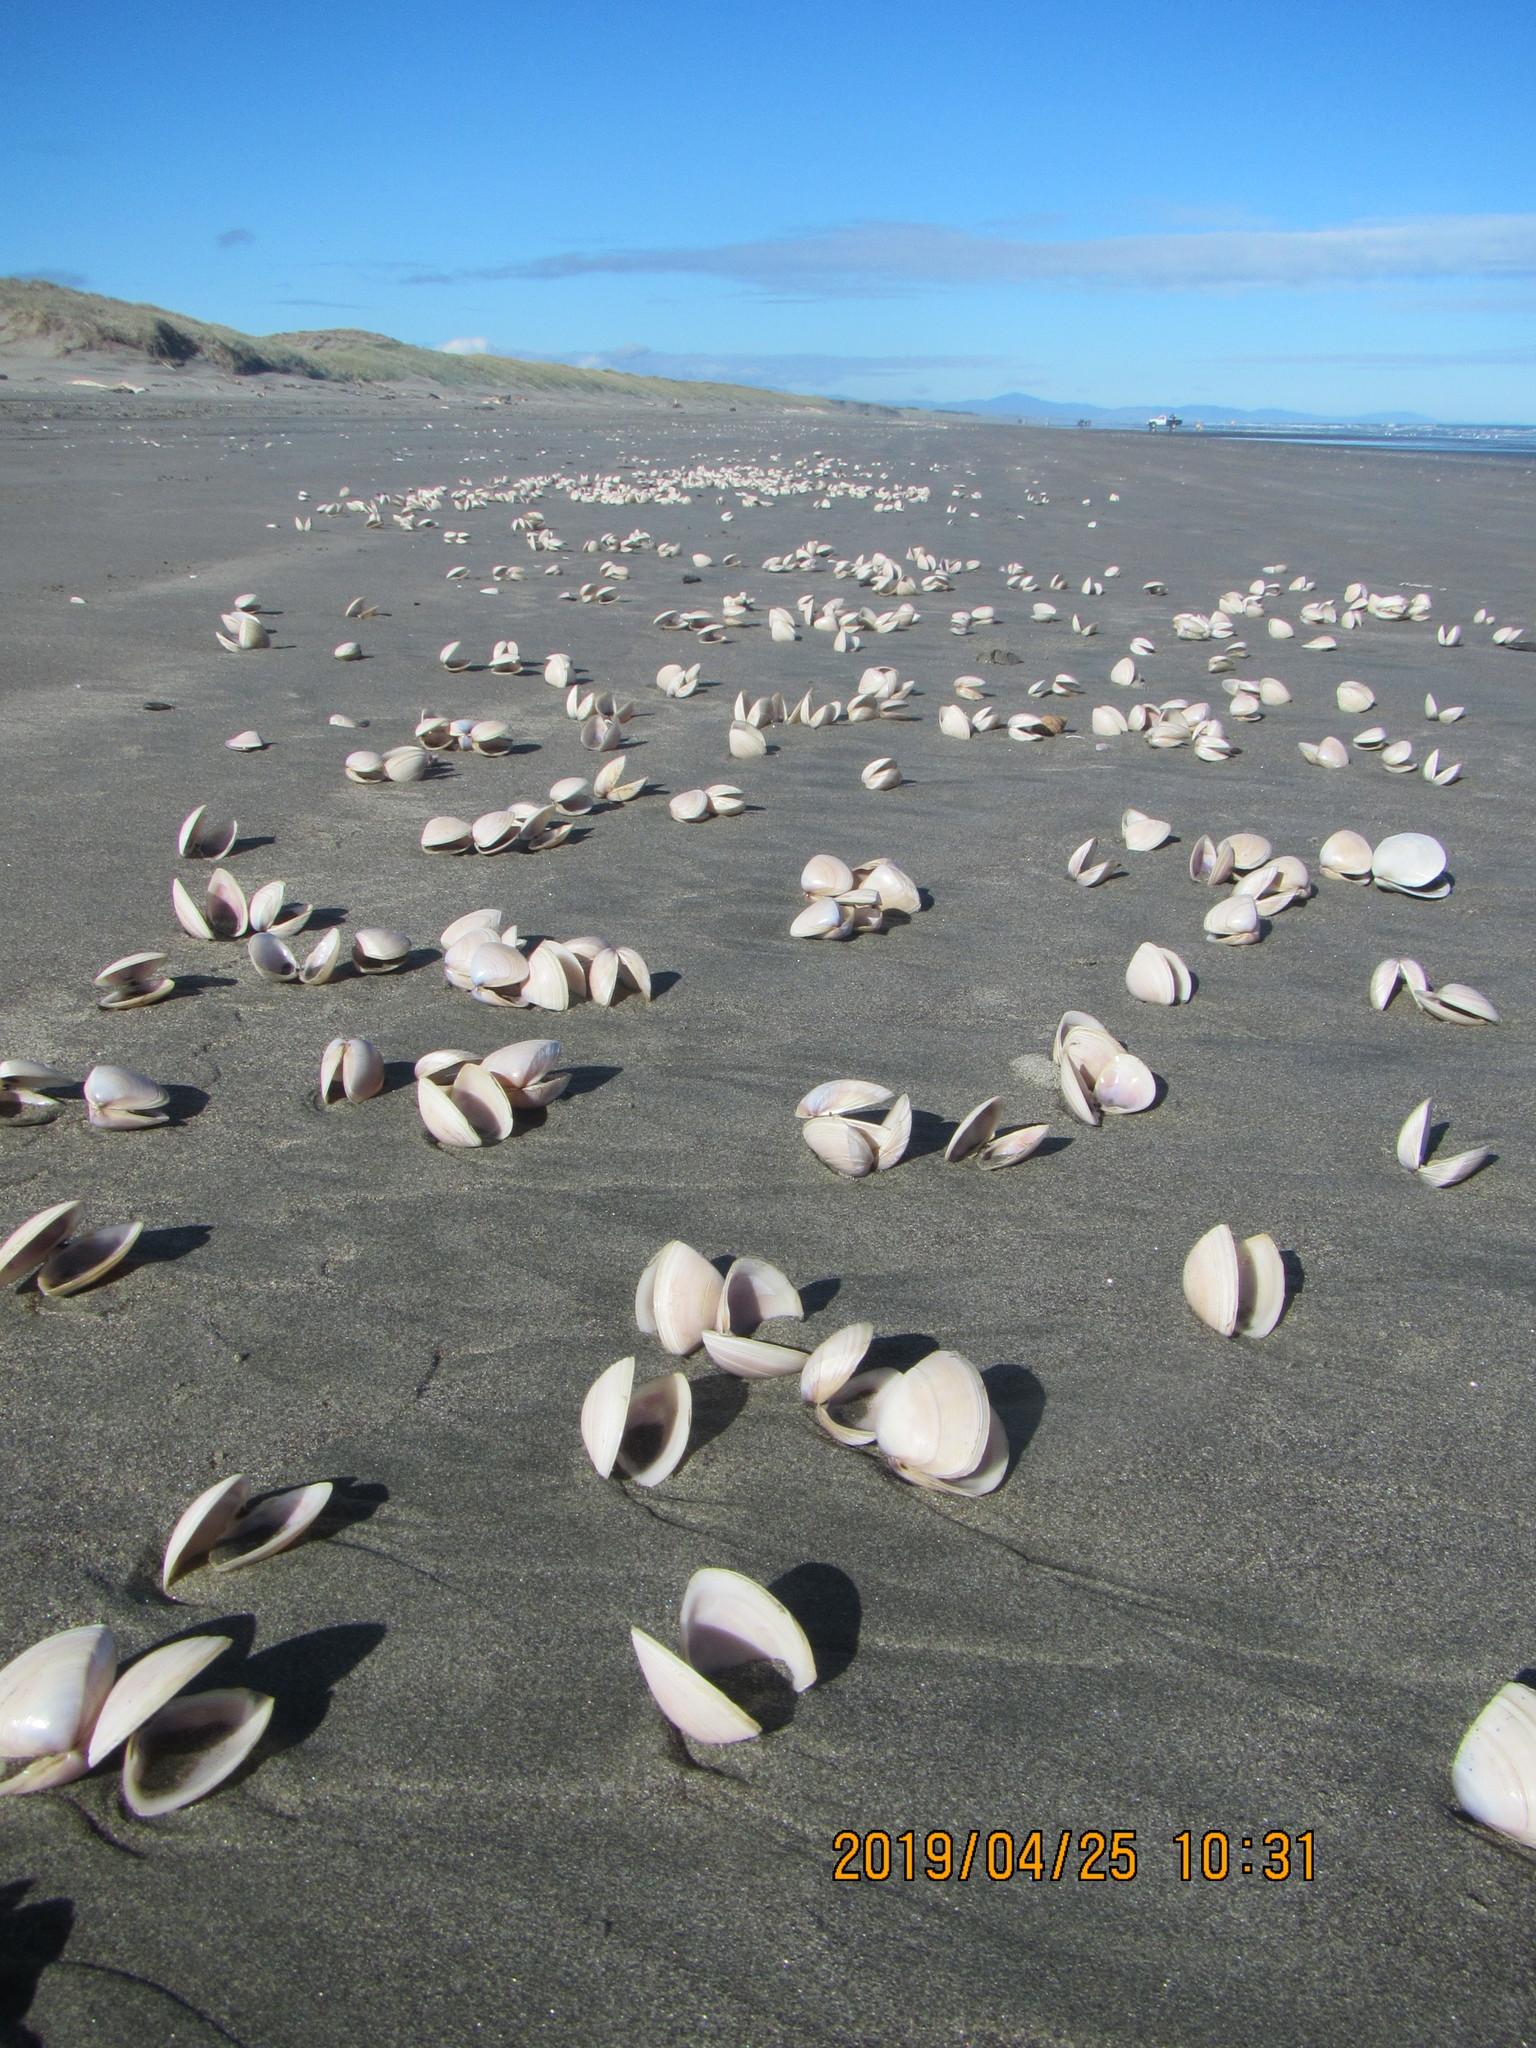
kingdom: Animalia
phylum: Mollusca
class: Bivalvia
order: Venerida
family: Mactridae
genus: Crassula
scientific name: Crassula aequilatera
